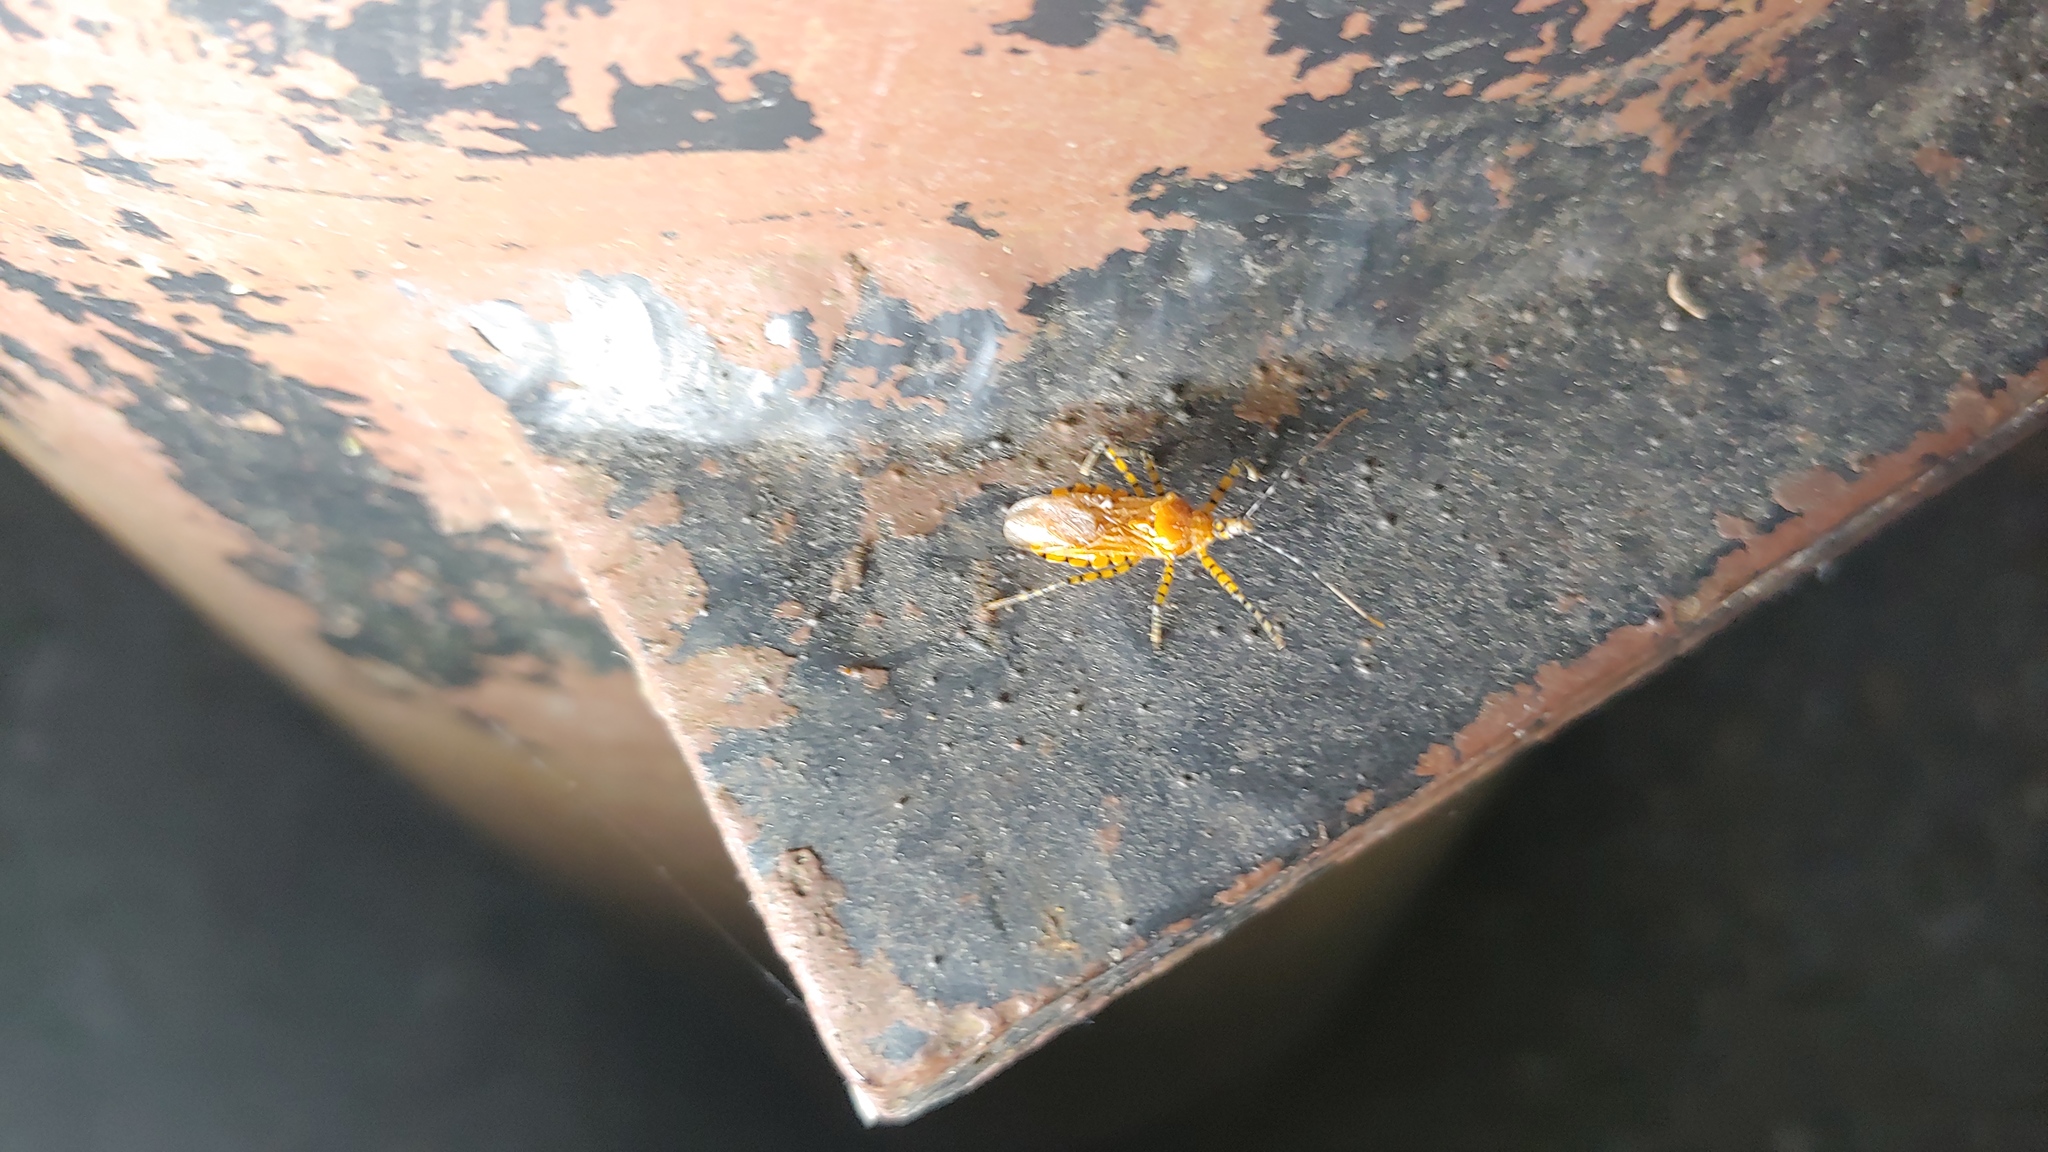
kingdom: Animalia
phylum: Arthropoda
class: Insecta
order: Hemiptera
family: Reduviidae
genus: Pselliopus
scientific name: Pselliopus barberi
